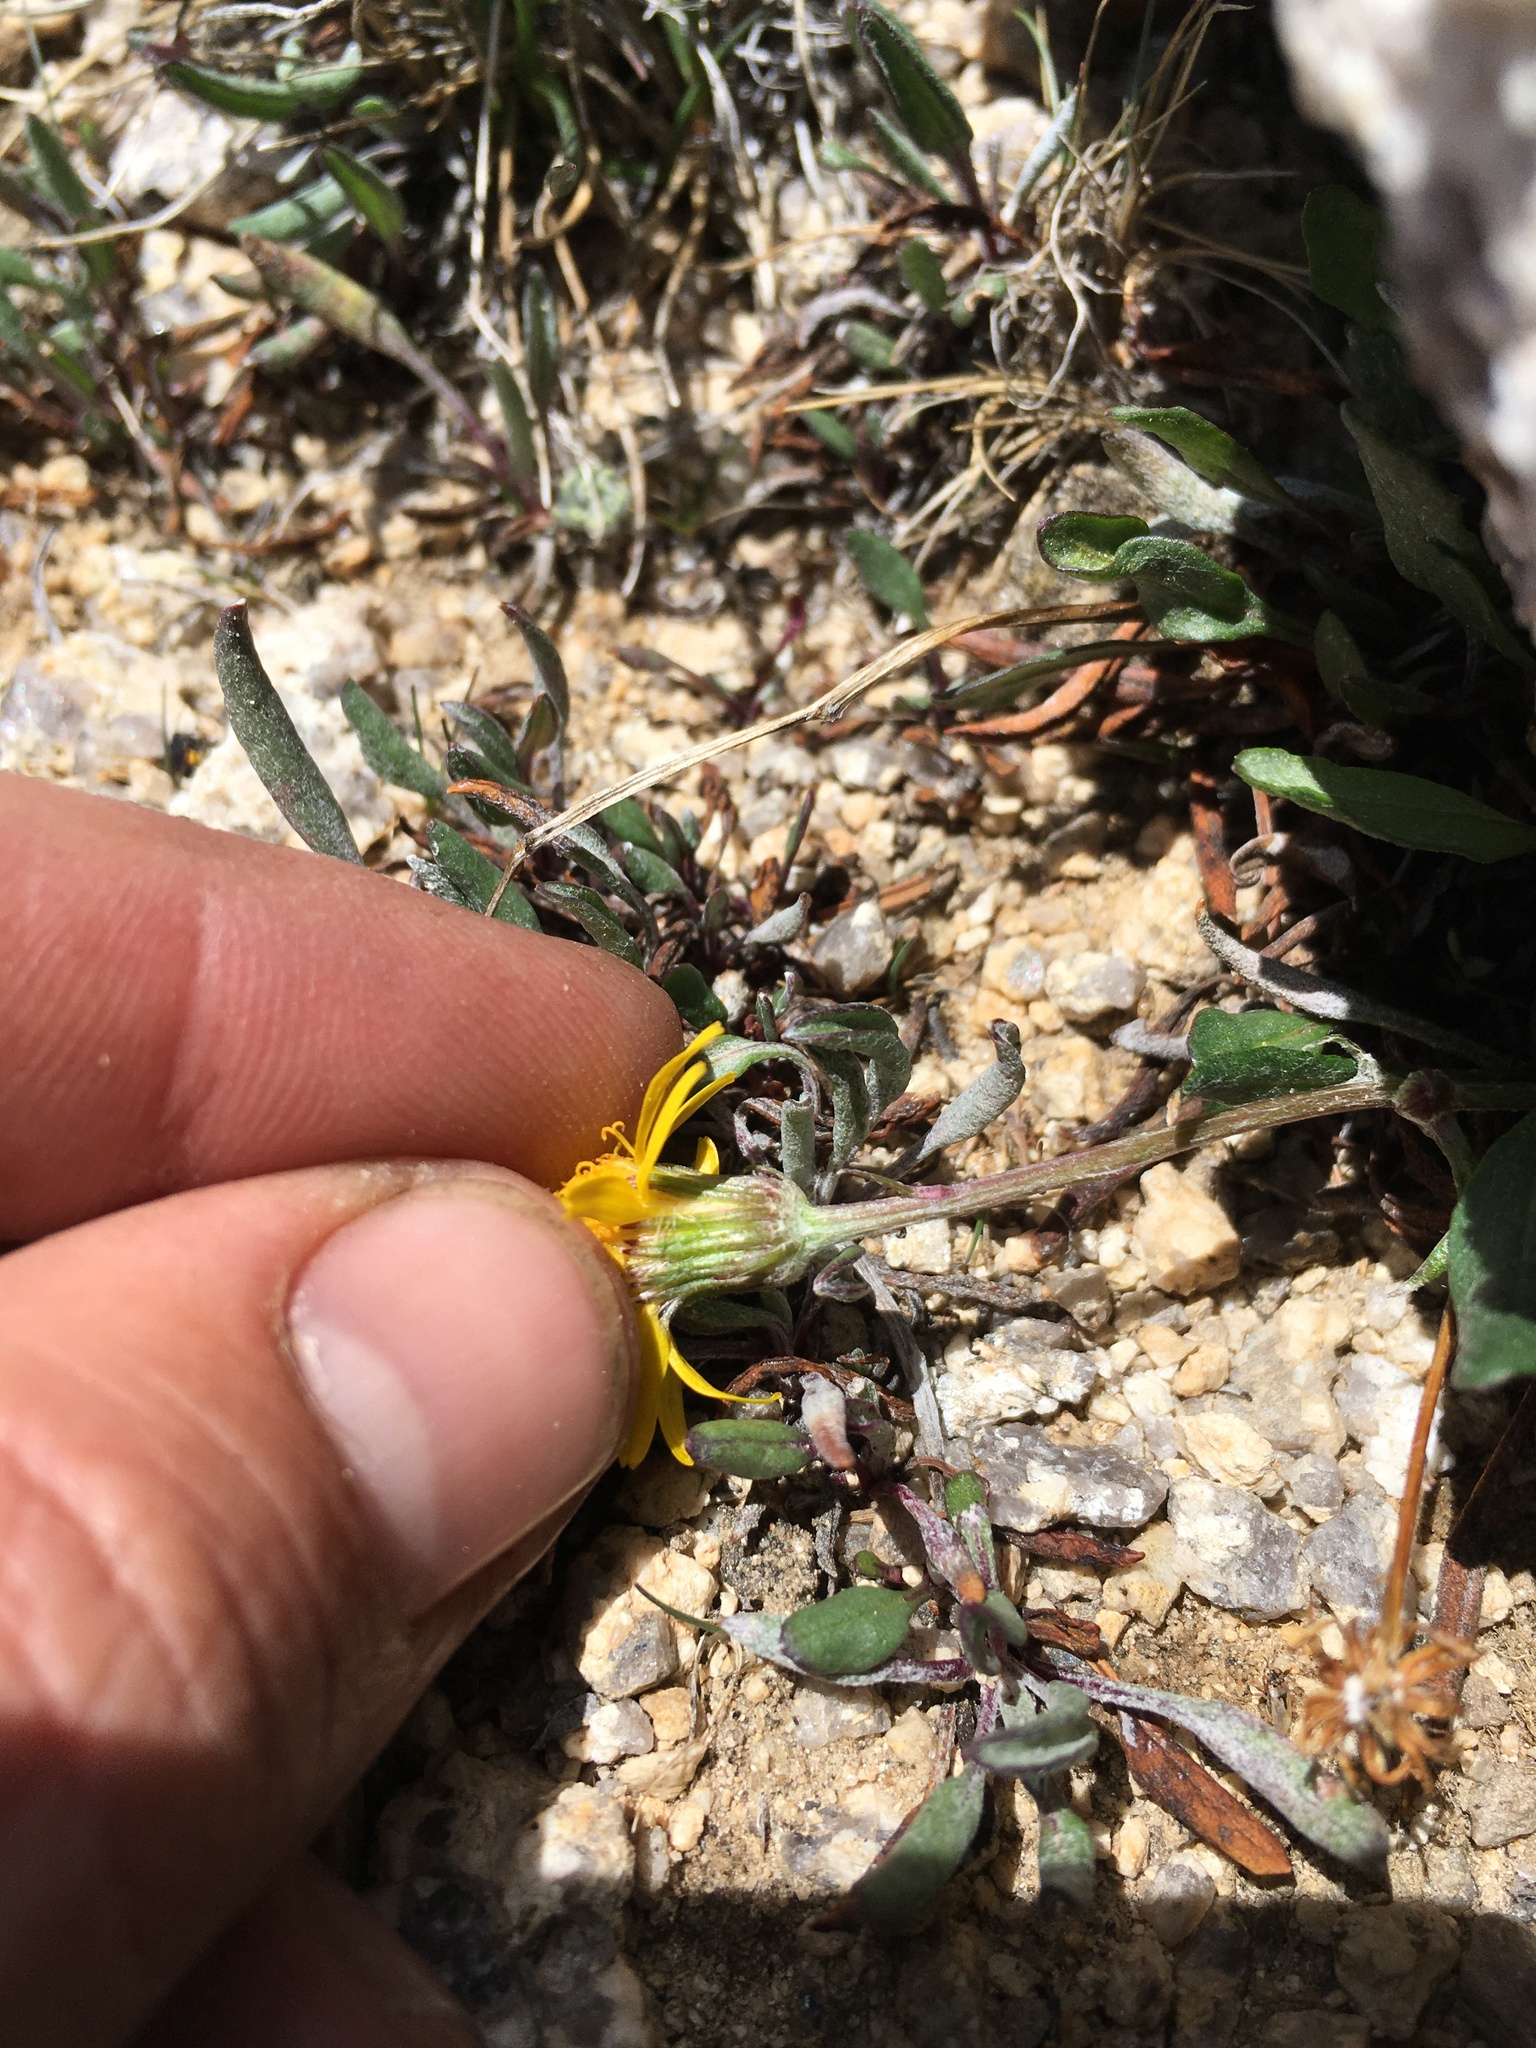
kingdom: Plantae
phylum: Tracheophyta
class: Magnoliopsida
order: Asterales
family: Asteraceae
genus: Packera
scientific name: Packera werneriifolia
